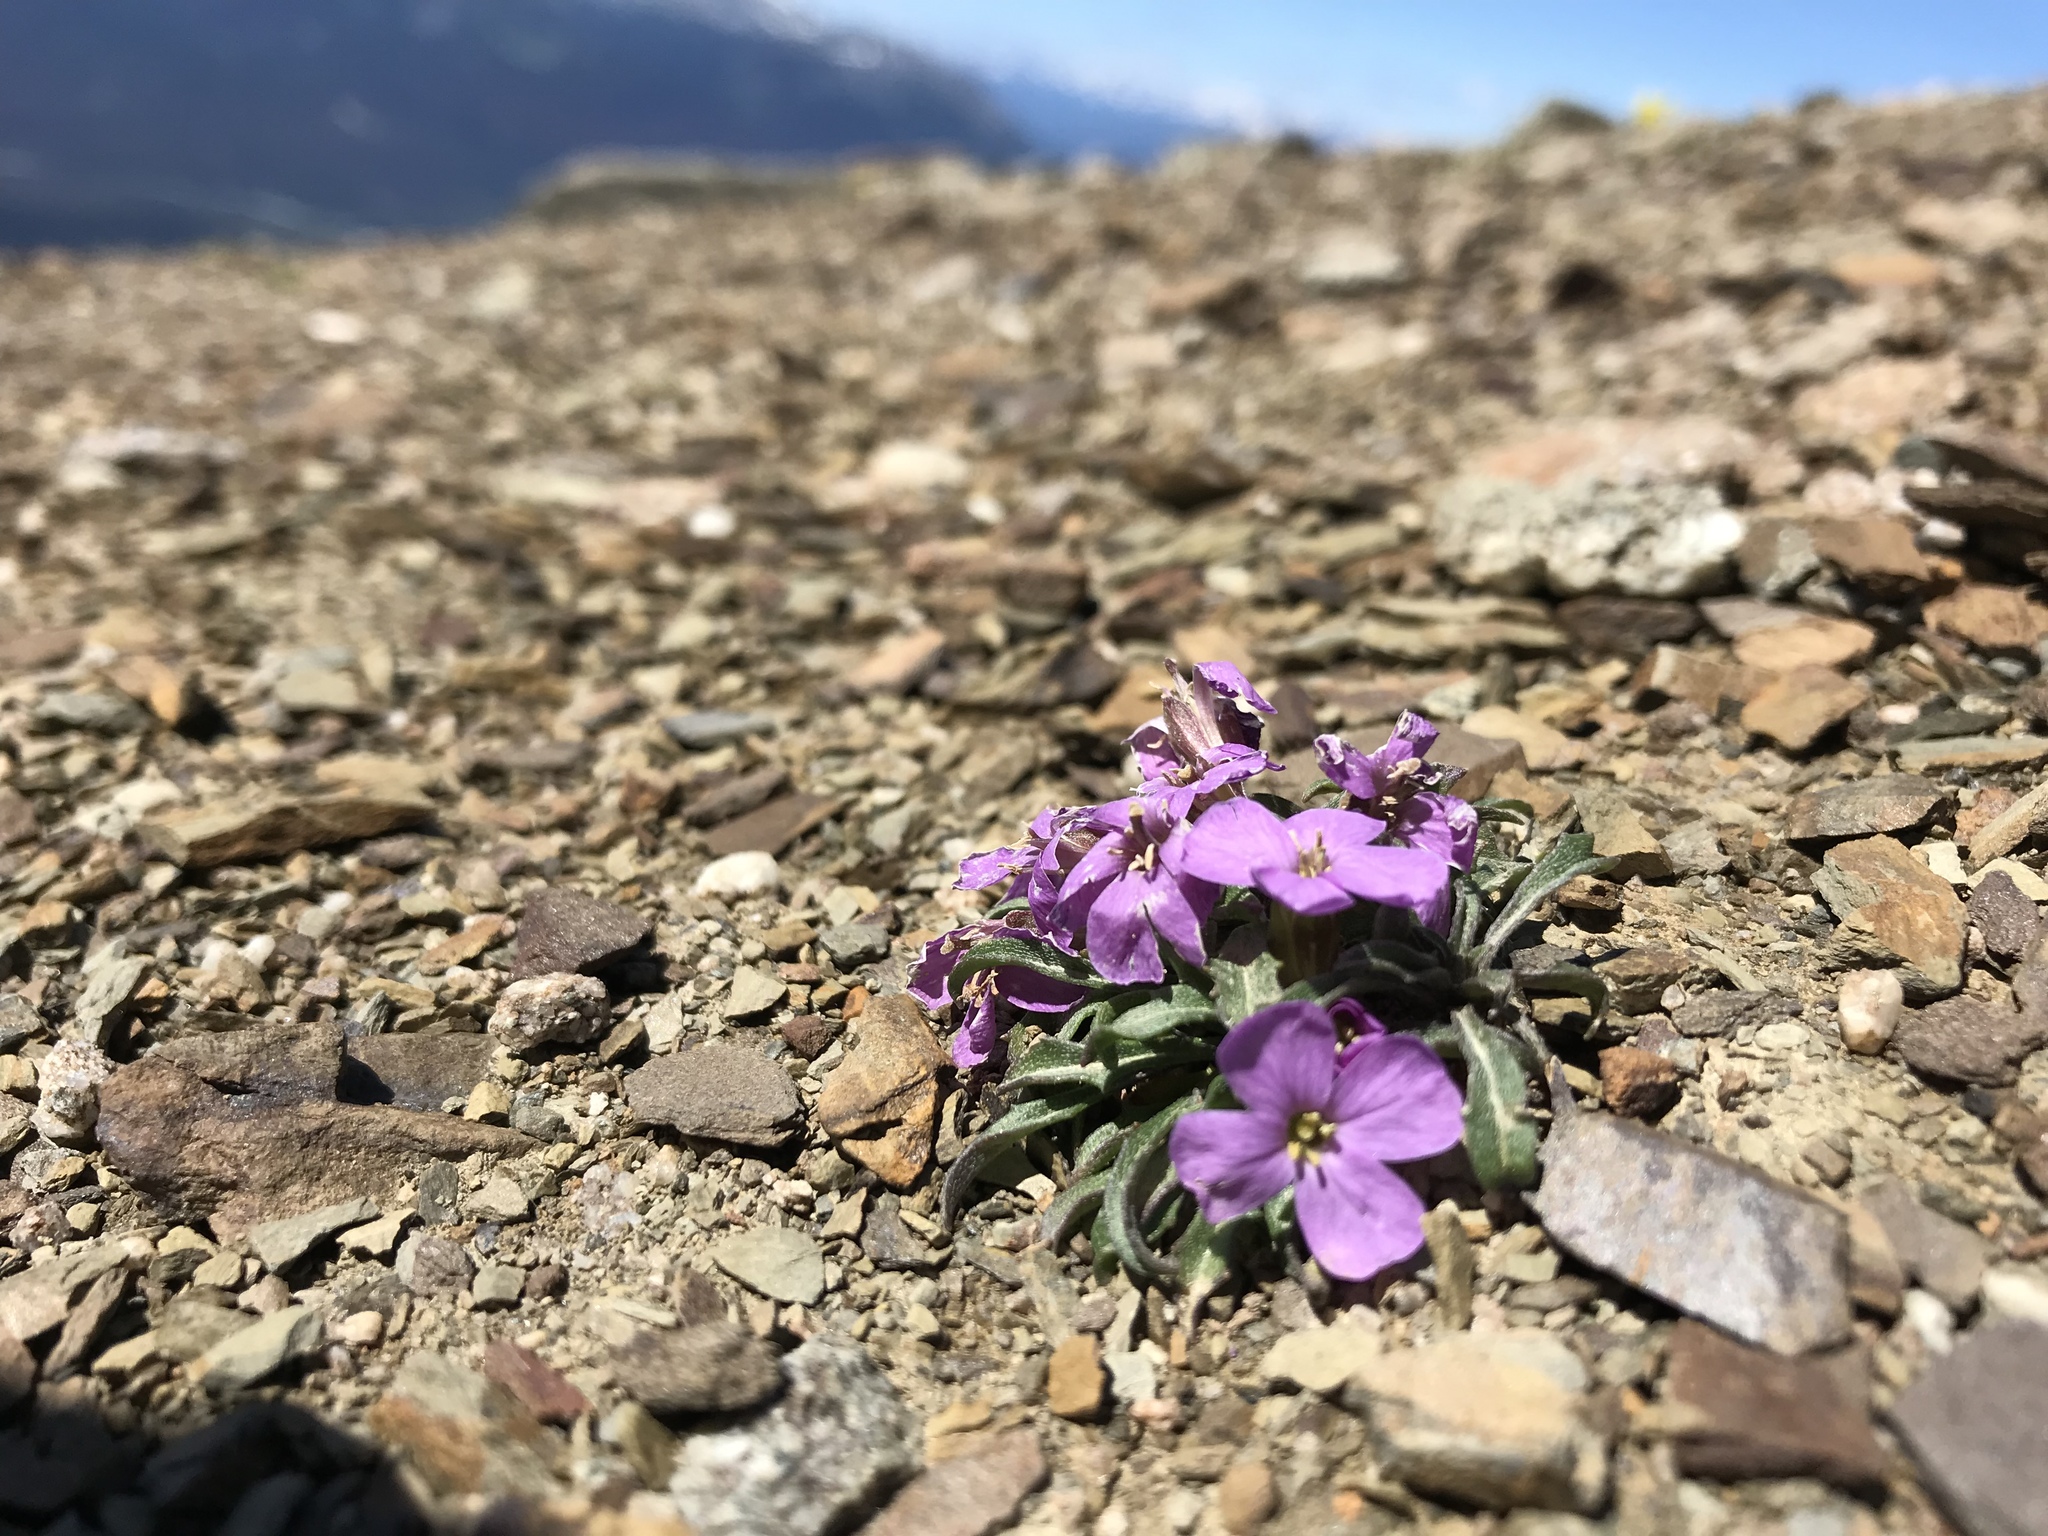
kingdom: Plantae
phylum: Tracheophyta
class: Magnoliopsida
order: Brassicales
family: Brassicaceae
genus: Parrya
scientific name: Parrya nudicaulis
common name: Naked-stemmed false wallflower
